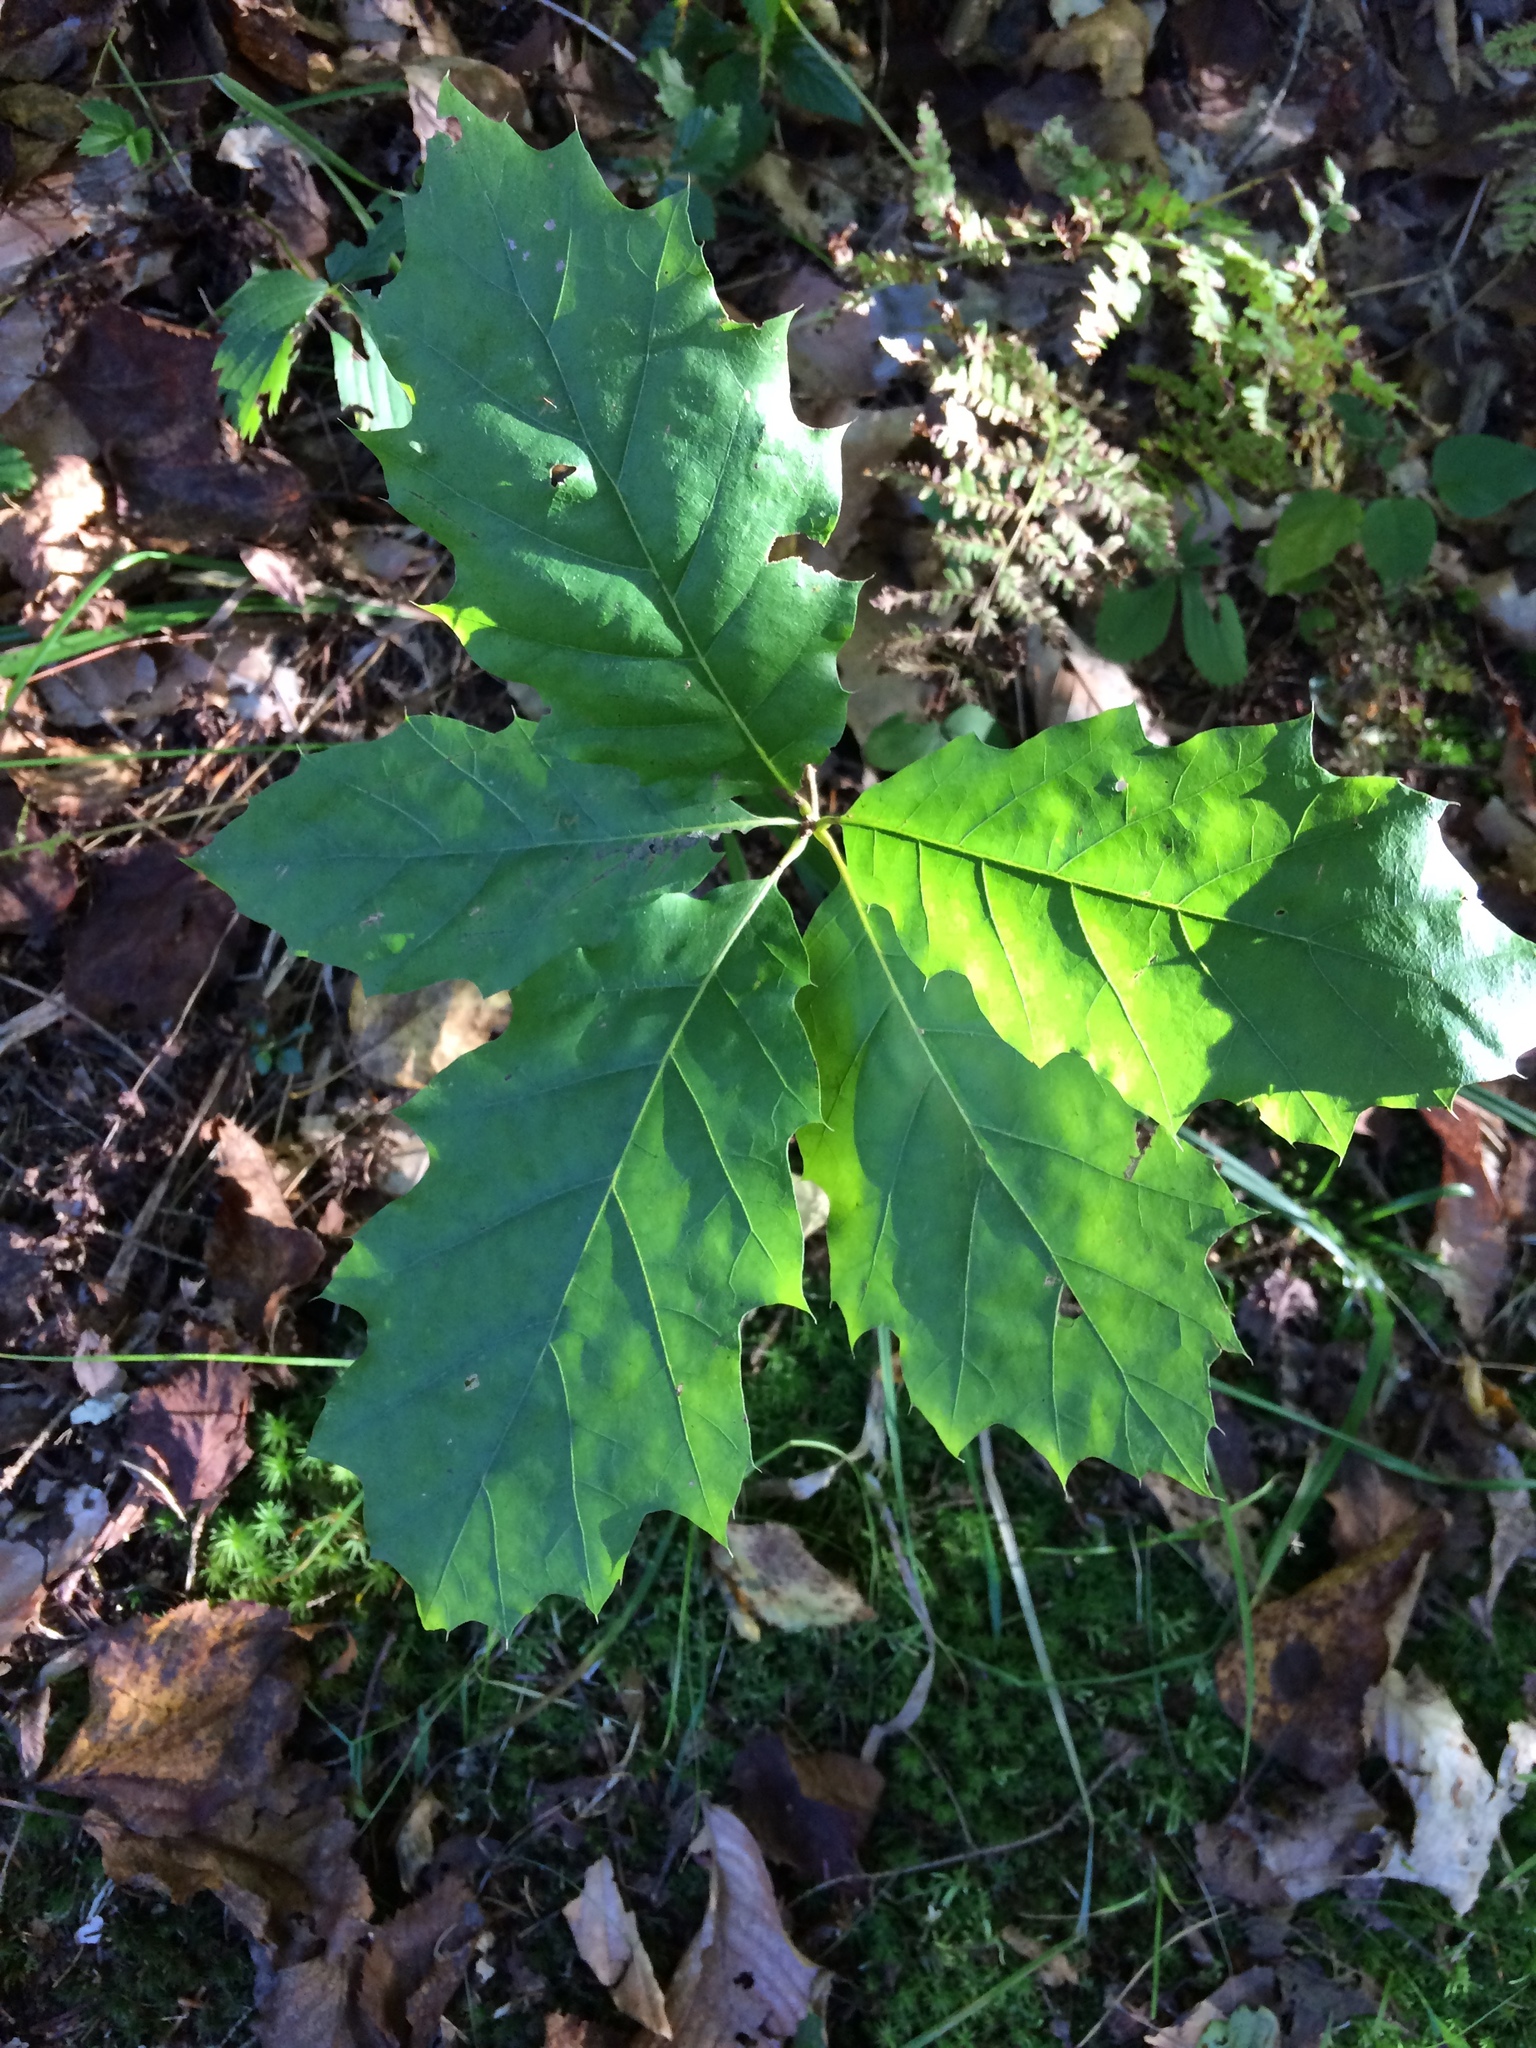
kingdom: Plantae
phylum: Tracheophyta
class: Magnoliopsida
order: Fagales
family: Fagaceae
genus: Quercus
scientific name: Quercus rubra
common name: Red oak
